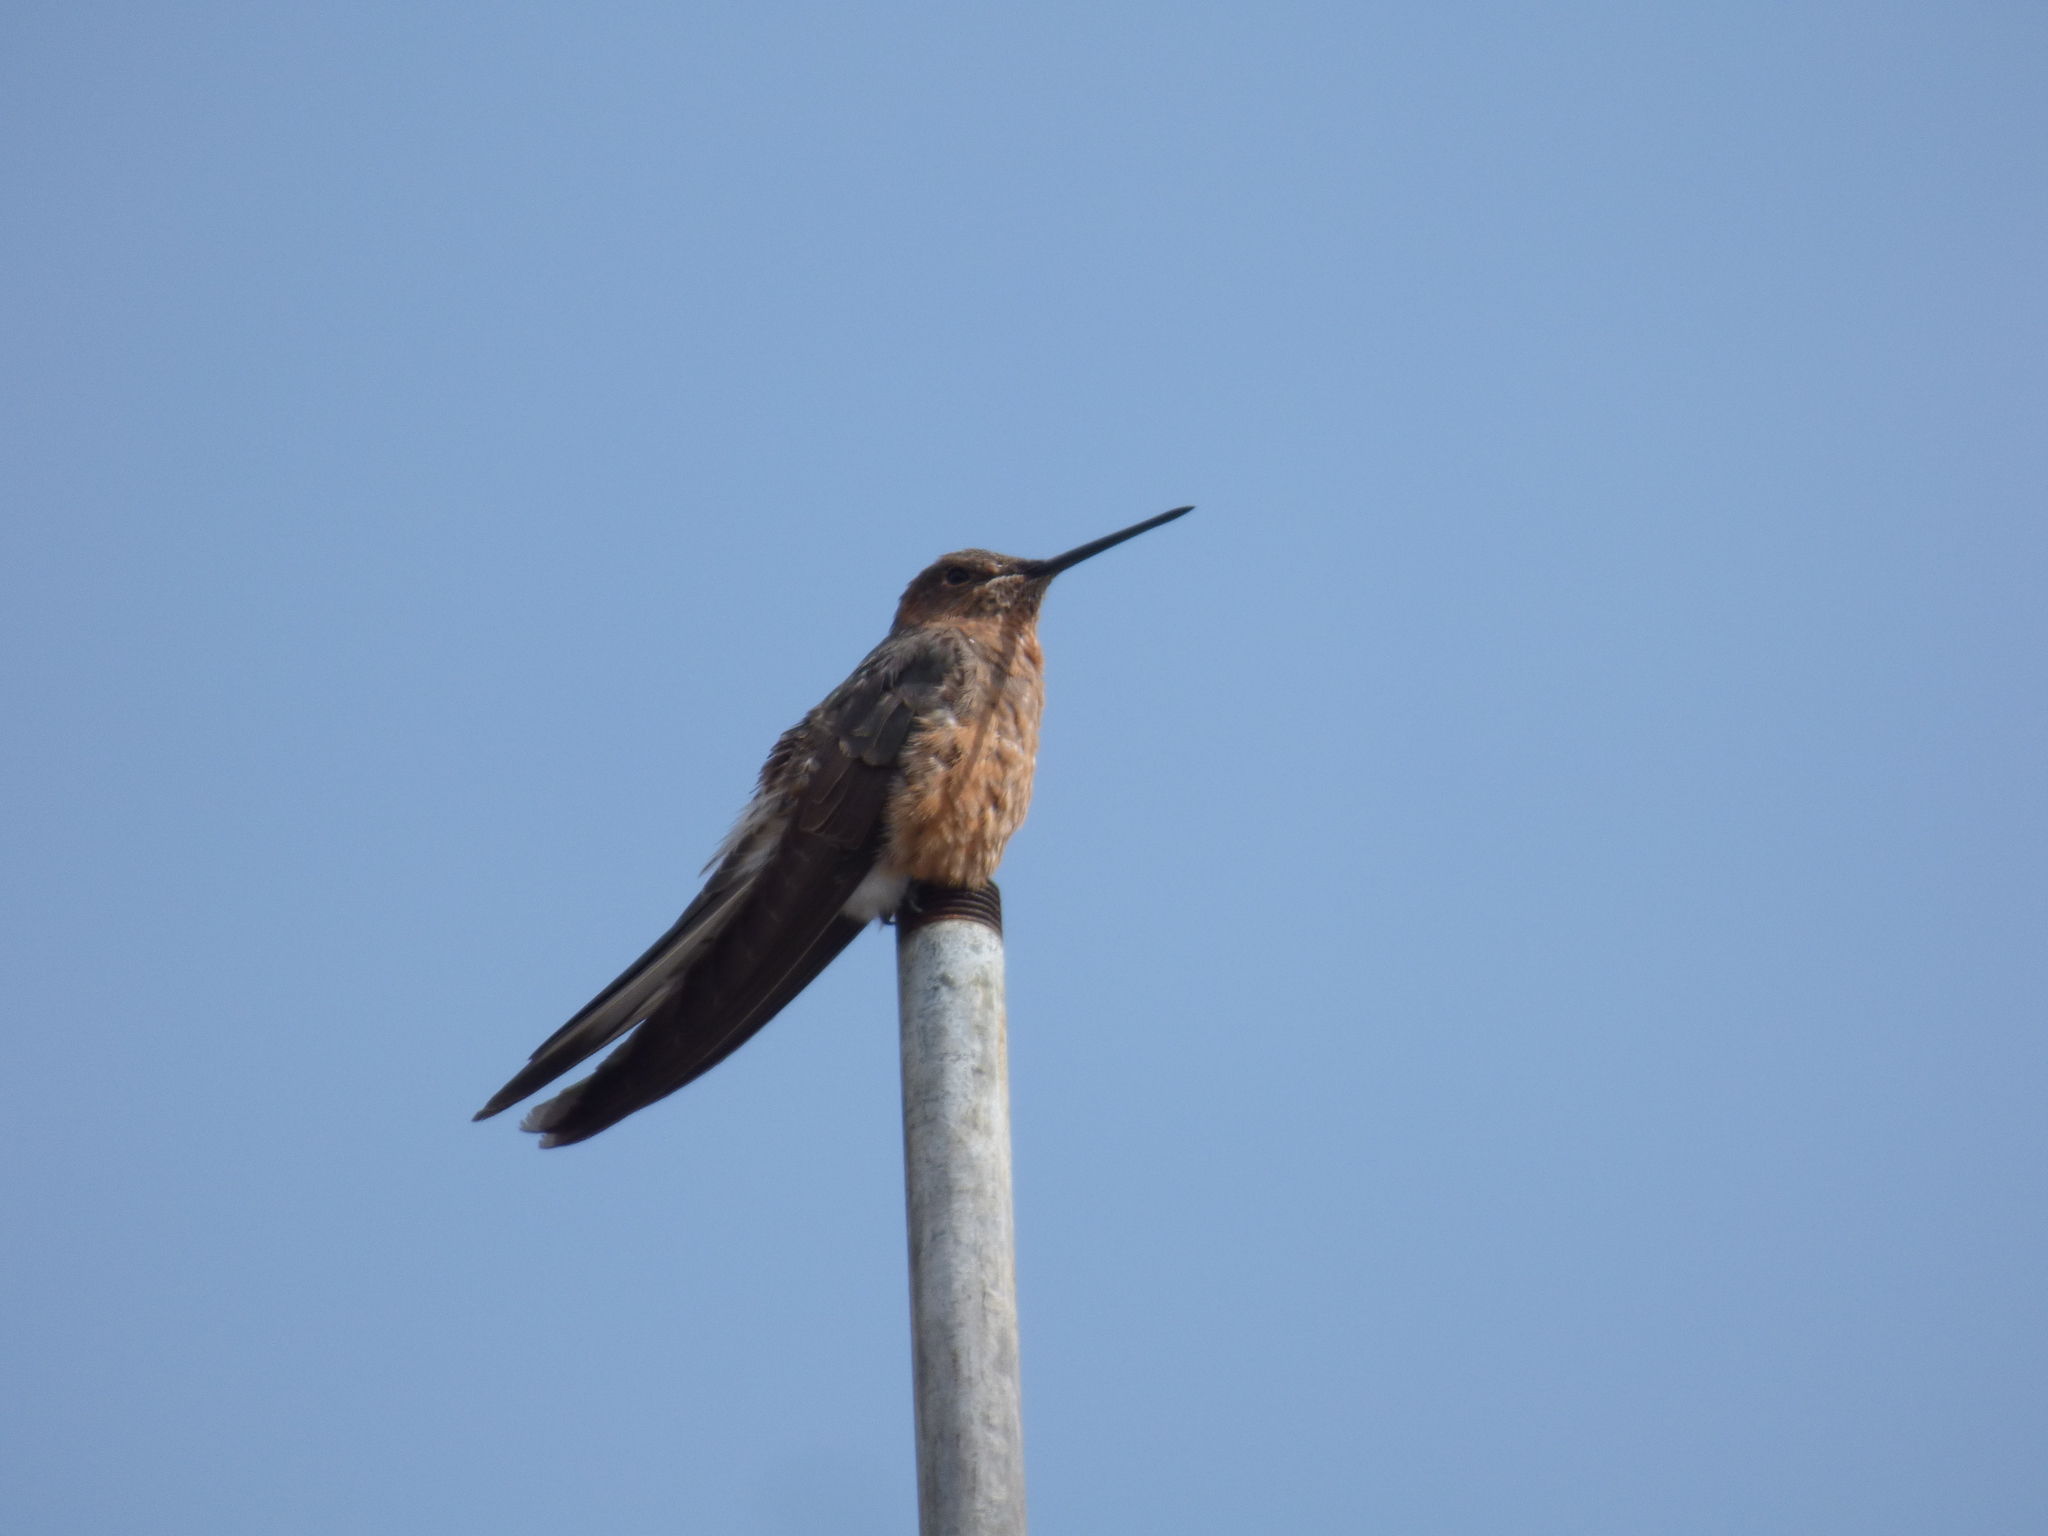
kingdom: Animalia
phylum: Chordata
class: Aves
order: Apodiformes
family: Trochilidae
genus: Patagona
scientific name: Patagona gigas
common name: Giant hummingbird
